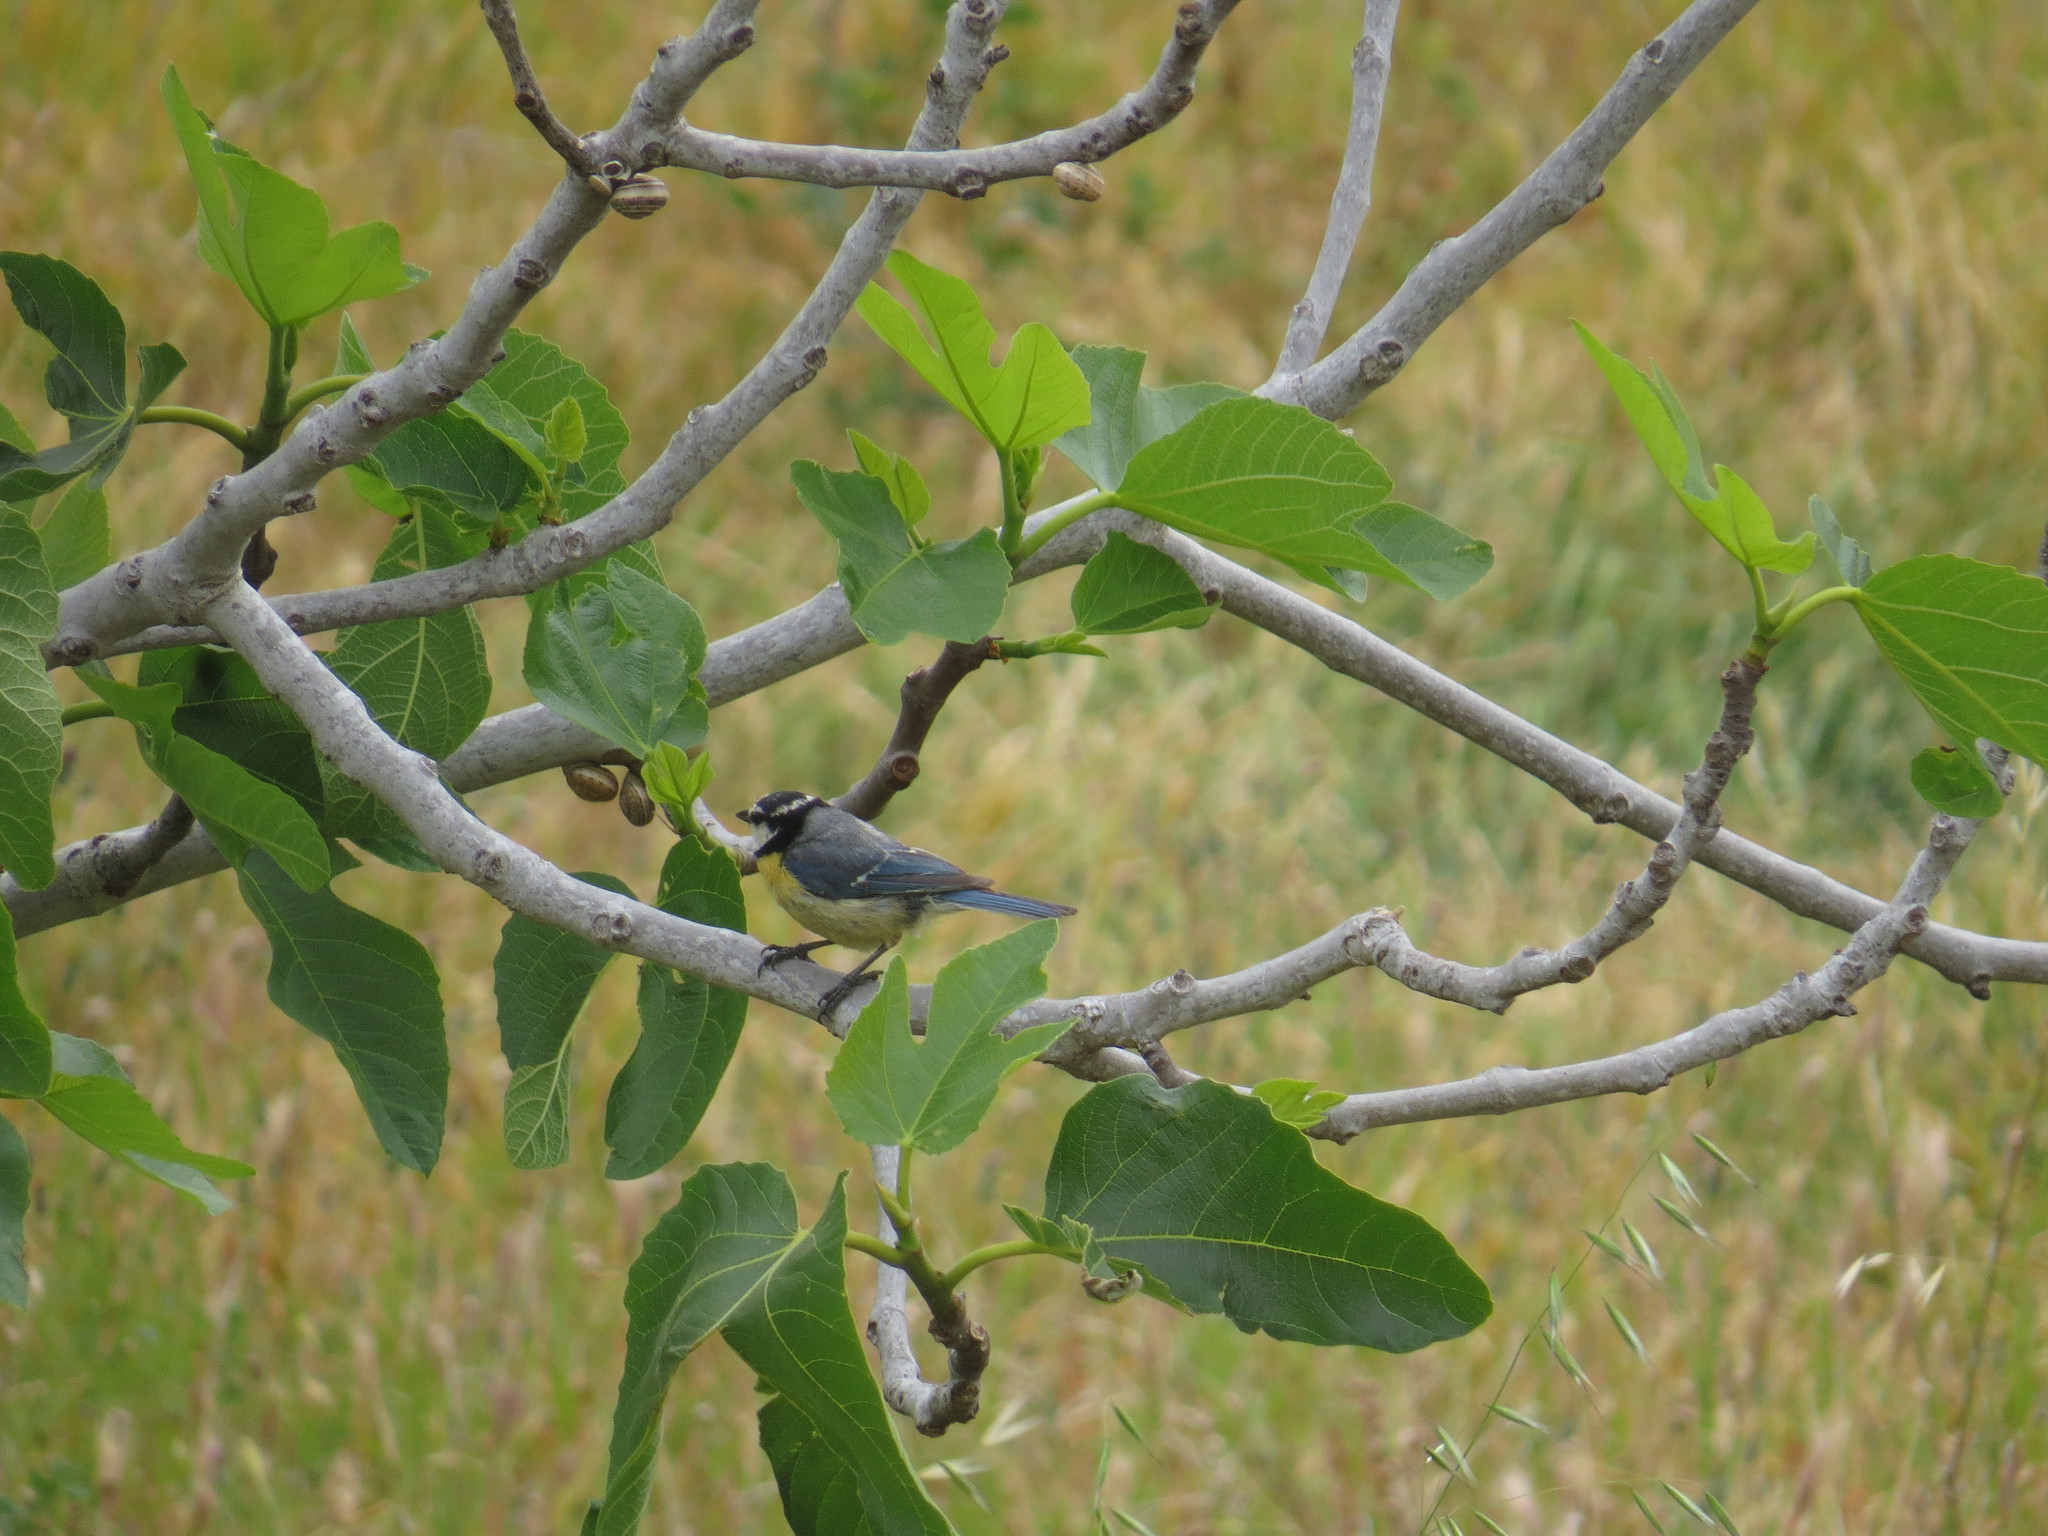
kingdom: Animalia
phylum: Chordata
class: Aves
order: Passeriformes
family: Paridae
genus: Cyanistes
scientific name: Cyanistes teneriffae
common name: African blue tit
